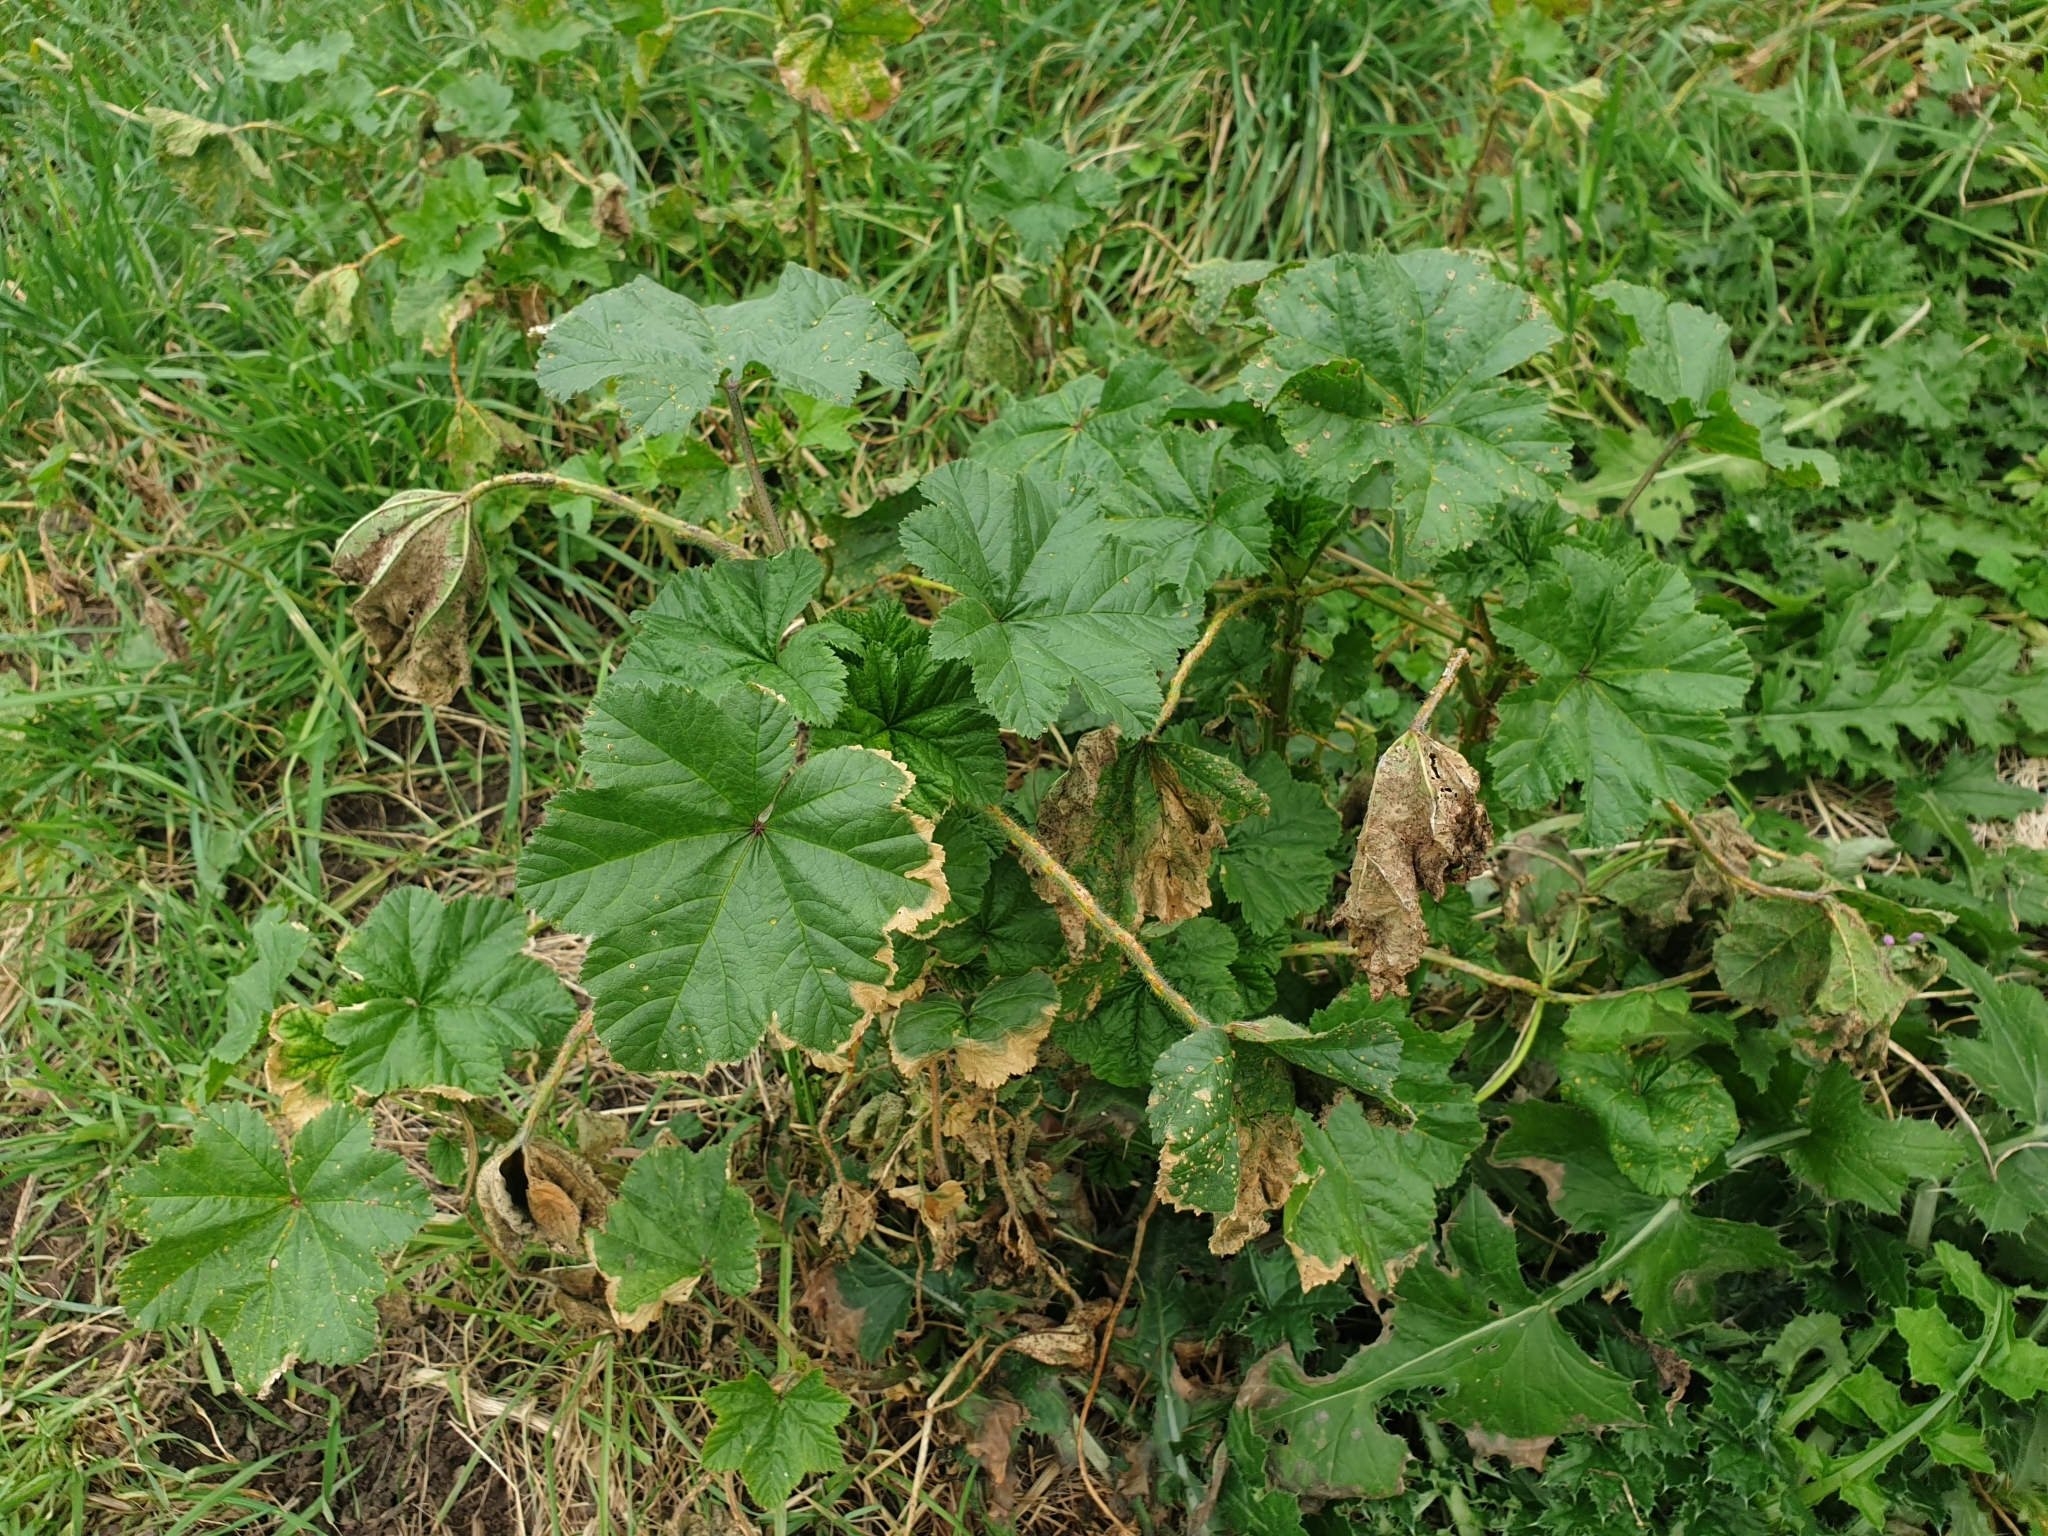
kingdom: Plantae
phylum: Tracheophyta
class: Magnoliopsida
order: Malvales
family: Malvaceae
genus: Malva
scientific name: Malva sylvestris
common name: Common mallow
